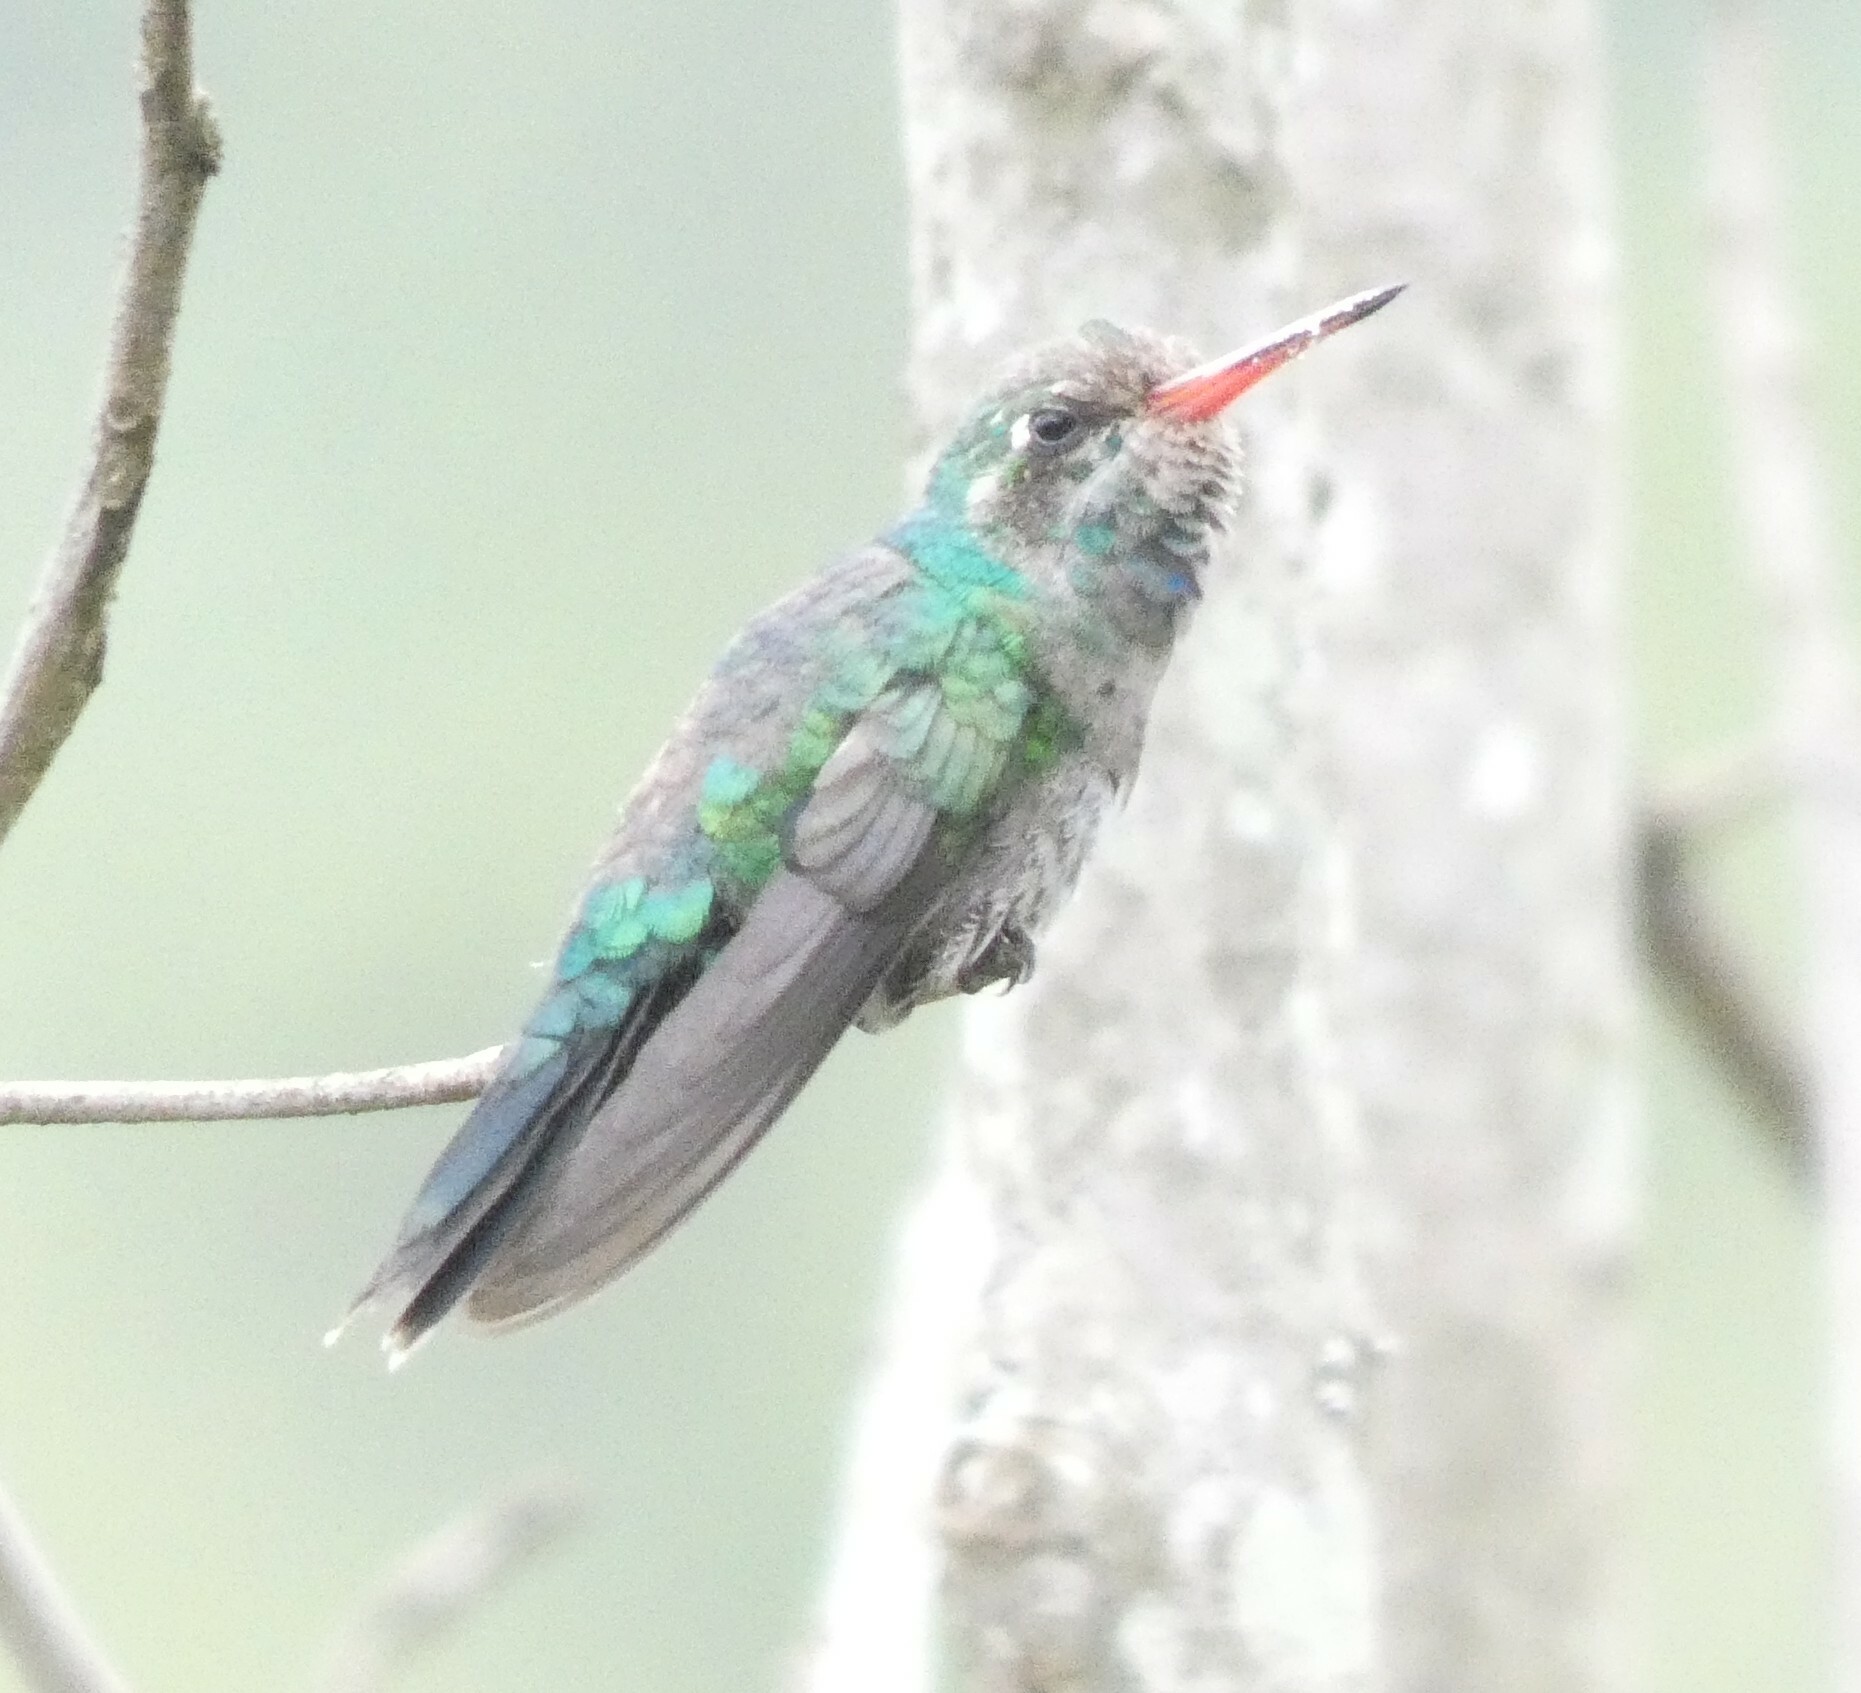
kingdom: Animalia
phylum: Chordata
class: Aves
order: Apodiformes
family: Trochilidae
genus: Chlorostilbon
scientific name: Chlorostilbon lucidus
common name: Glittering-bellied emerald
